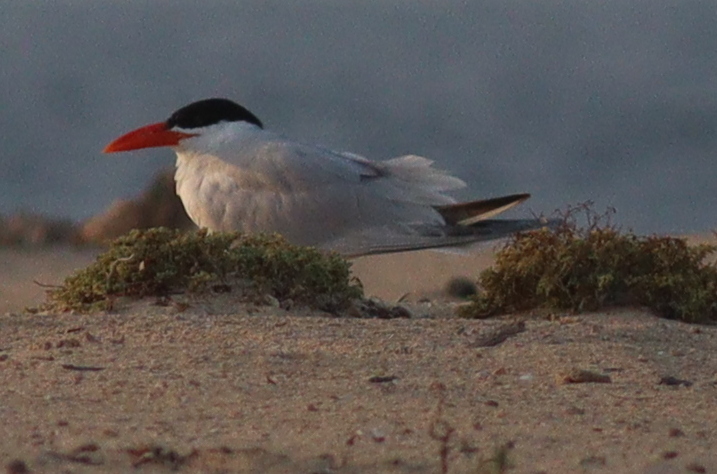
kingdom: Animalia
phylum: Chordata
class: Aves
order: Charadriiformes
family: Laridae
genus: Hydroprogne
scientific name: Hydroprogne caspia
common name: Caspian tern
